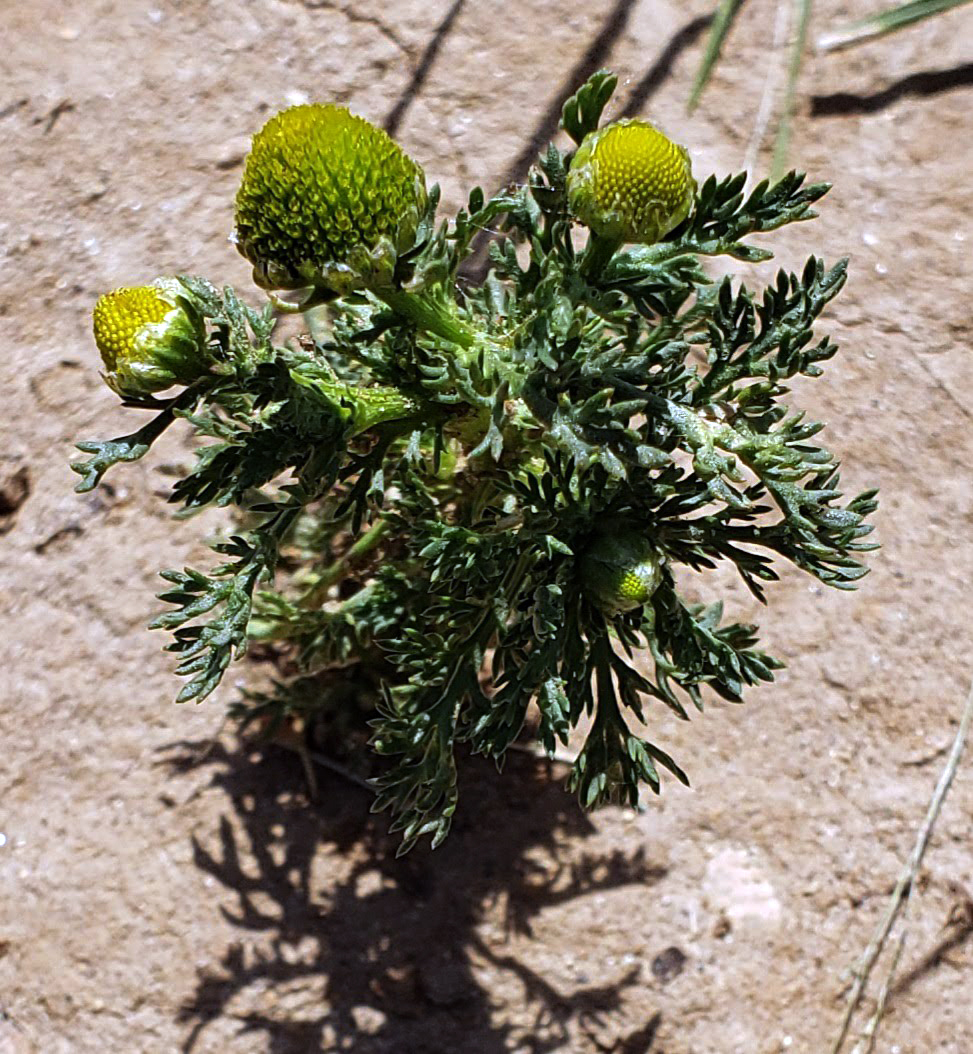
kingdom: Plantae
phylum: Tracheophyta
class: Magnoliopsida
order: Asterales
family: Asteraceae
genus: Matricaria
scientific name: Matricaria discoidea
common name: Disc mayweed
